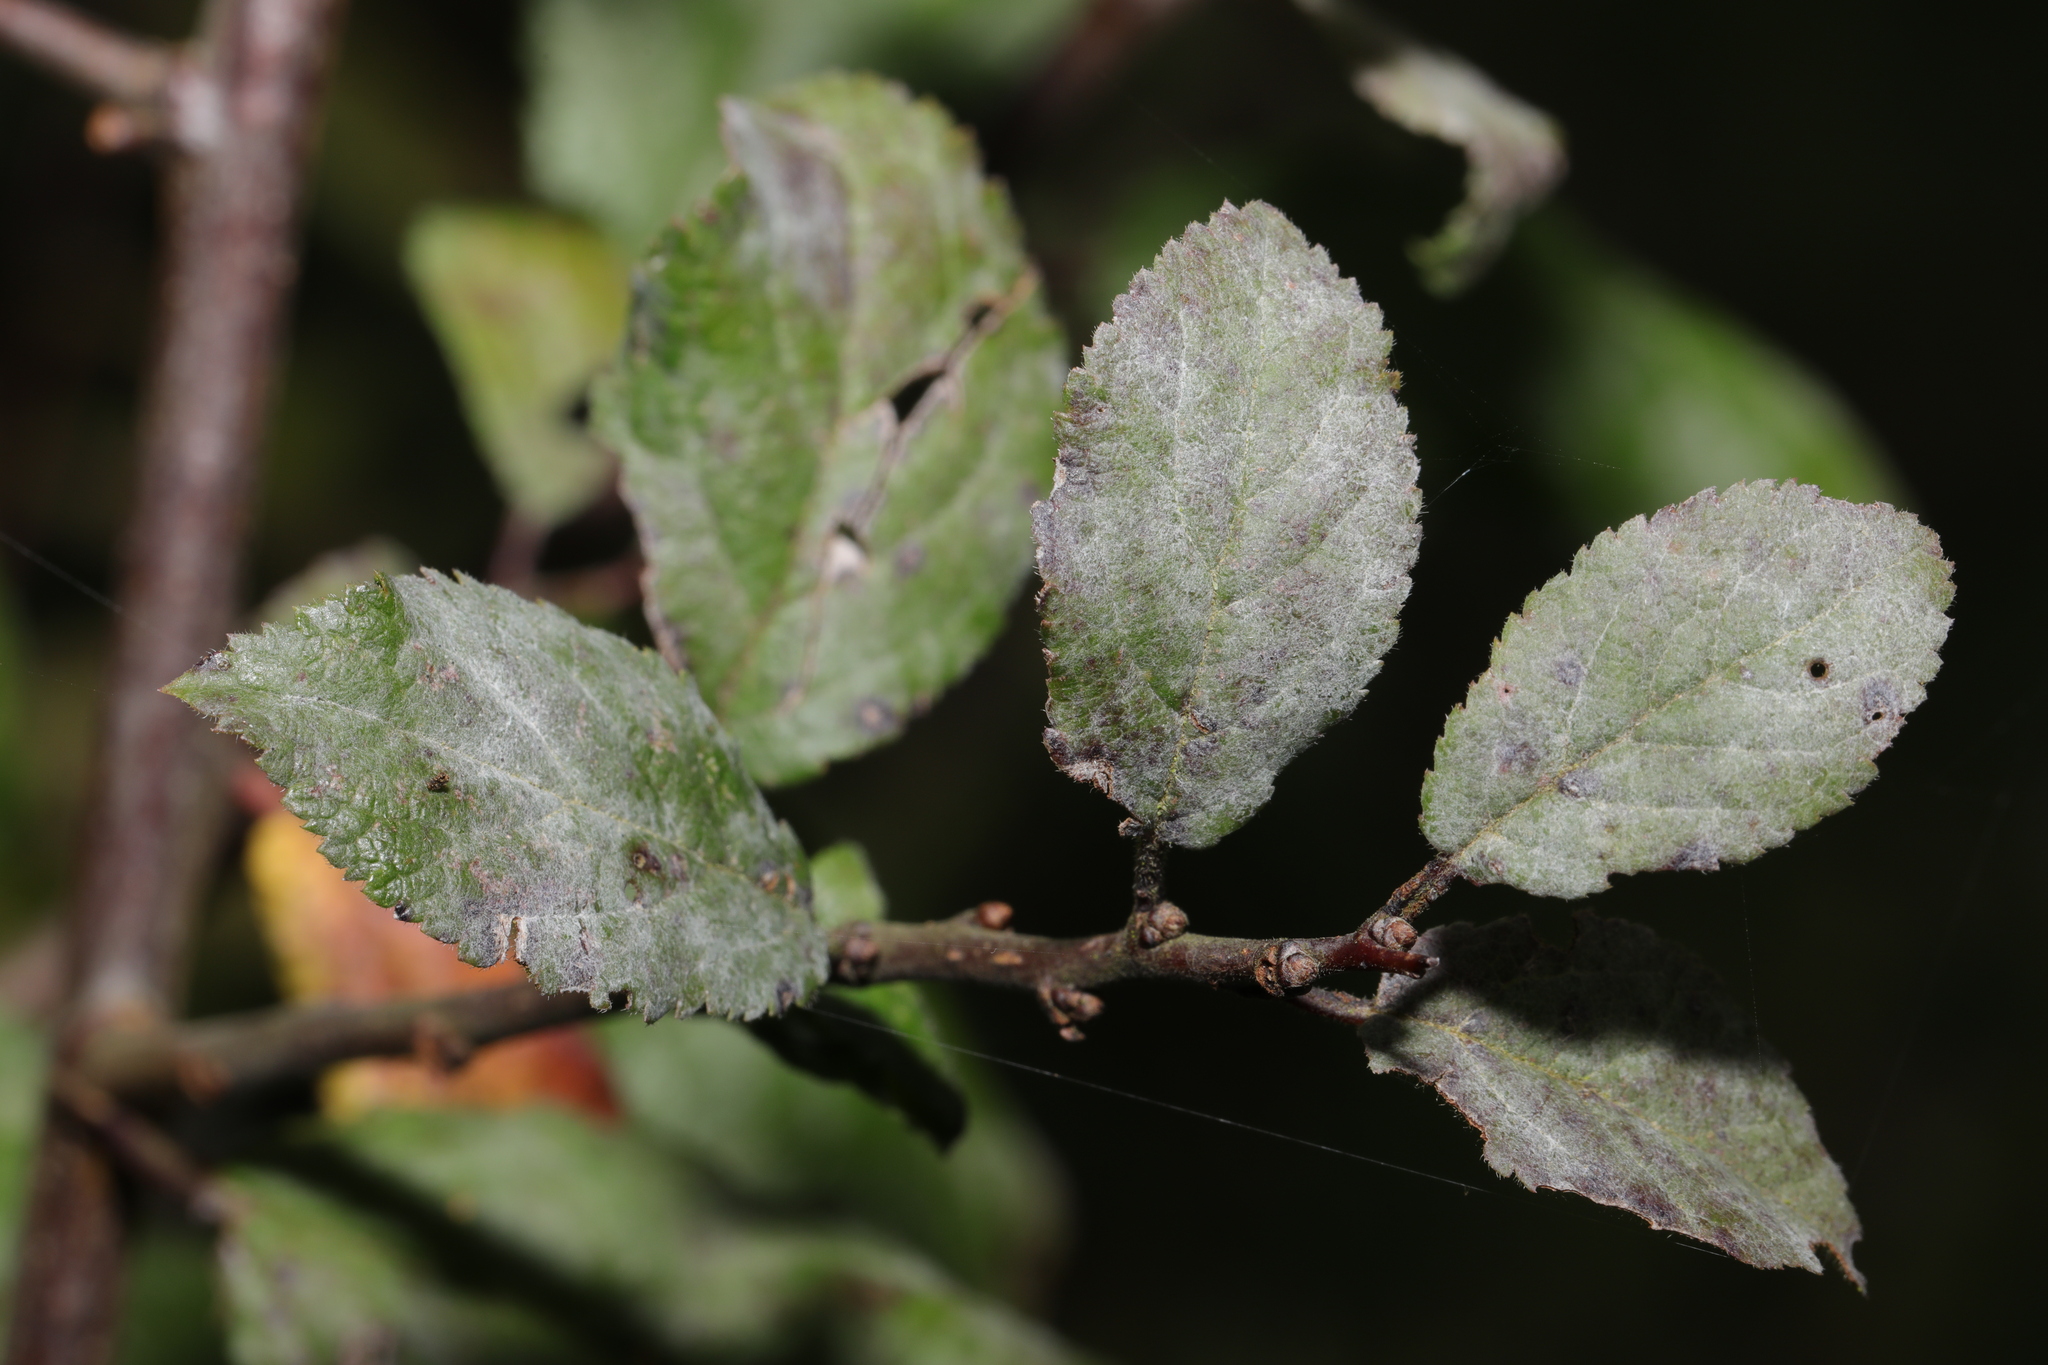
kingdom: Fungi
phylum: Ascomycota
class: Leotiomycetes
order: Helotiales
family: Erysiphaceae
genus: Podosphaera
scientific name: Podosphaera leucotricha
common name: Apple powdery mildew
